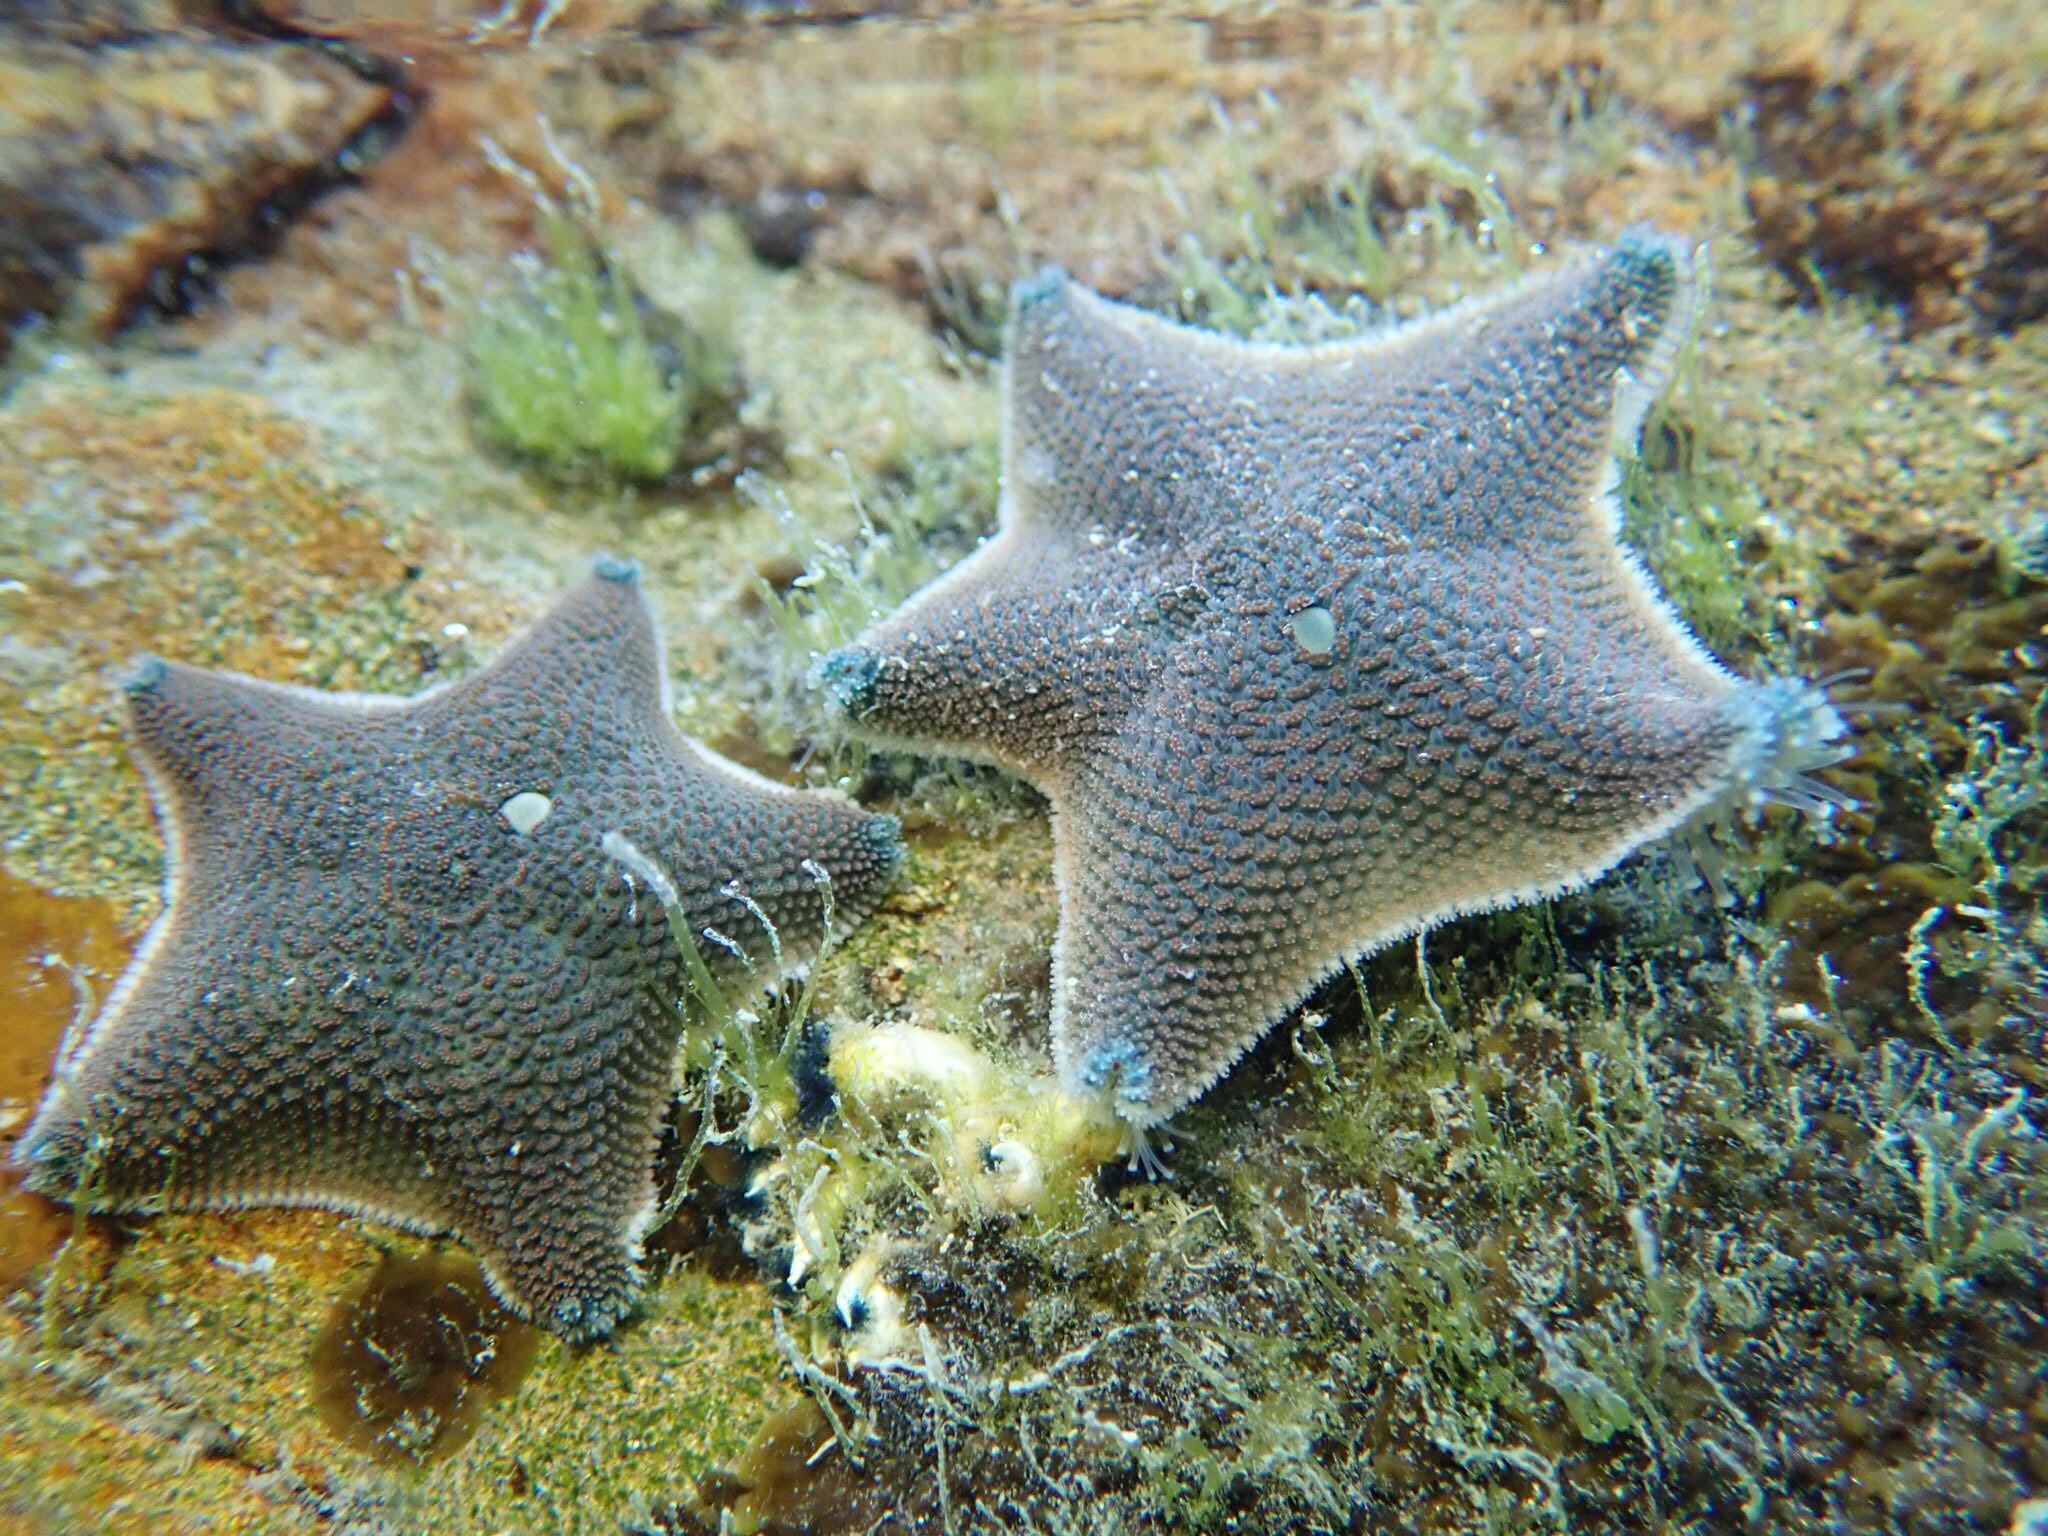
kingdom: Animalia
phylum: Echinodermata
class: Asteroidea
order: Valvatida
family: Asterinidae
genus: Patiriella
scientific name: Patiriella regularis
